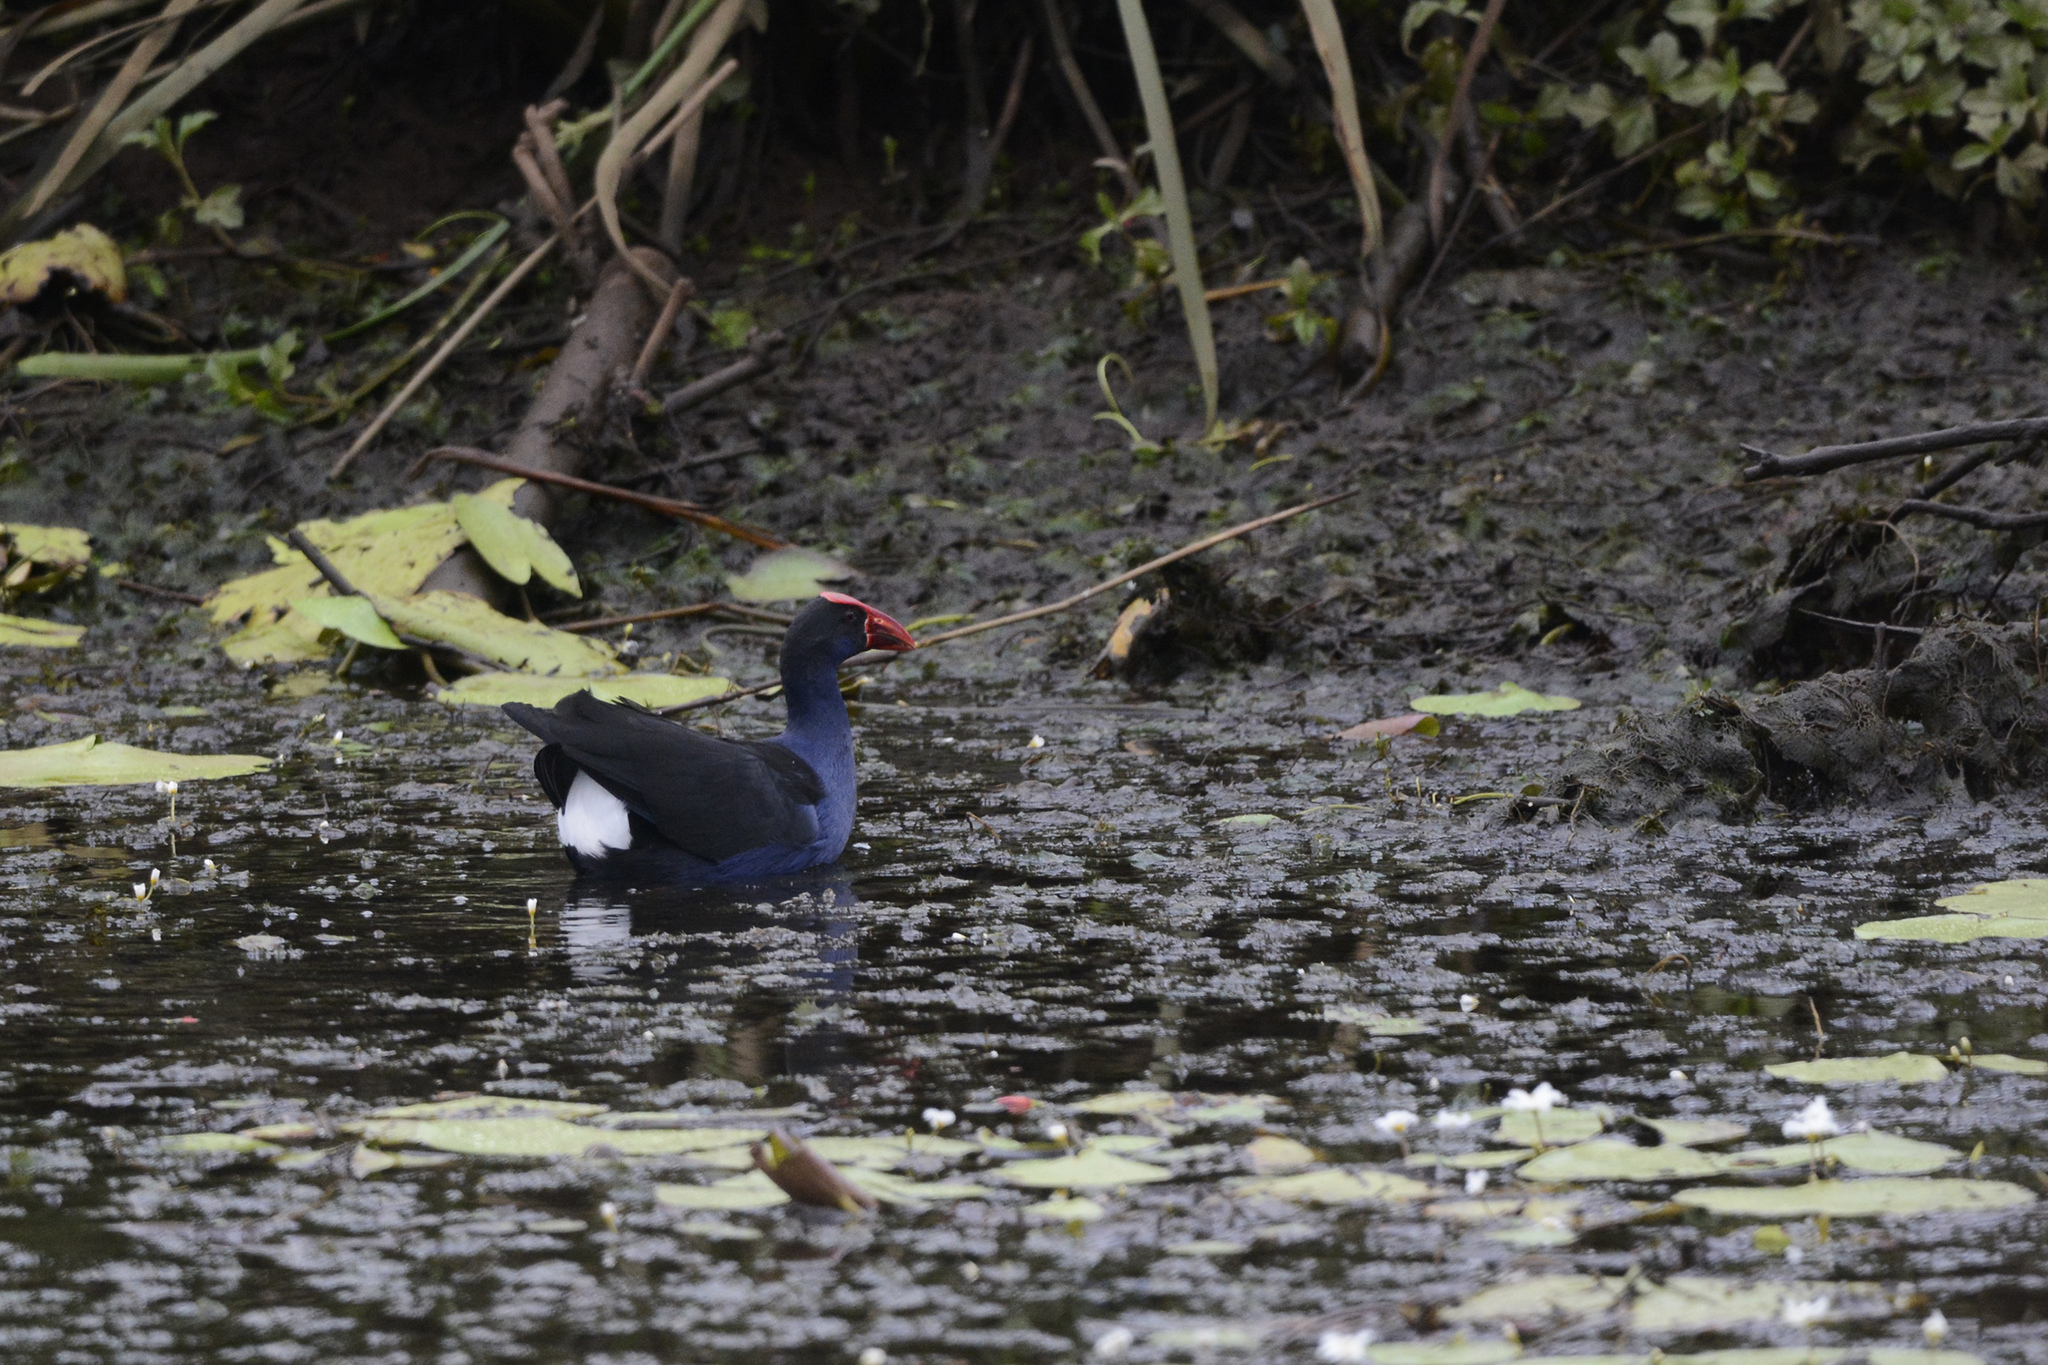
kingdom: Animalia
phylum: Chordata
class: Aves
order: Gruiformes
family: Rallidae
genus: Porphyrio
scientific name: Porphyrio melanotus
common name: Australasian swamphen
